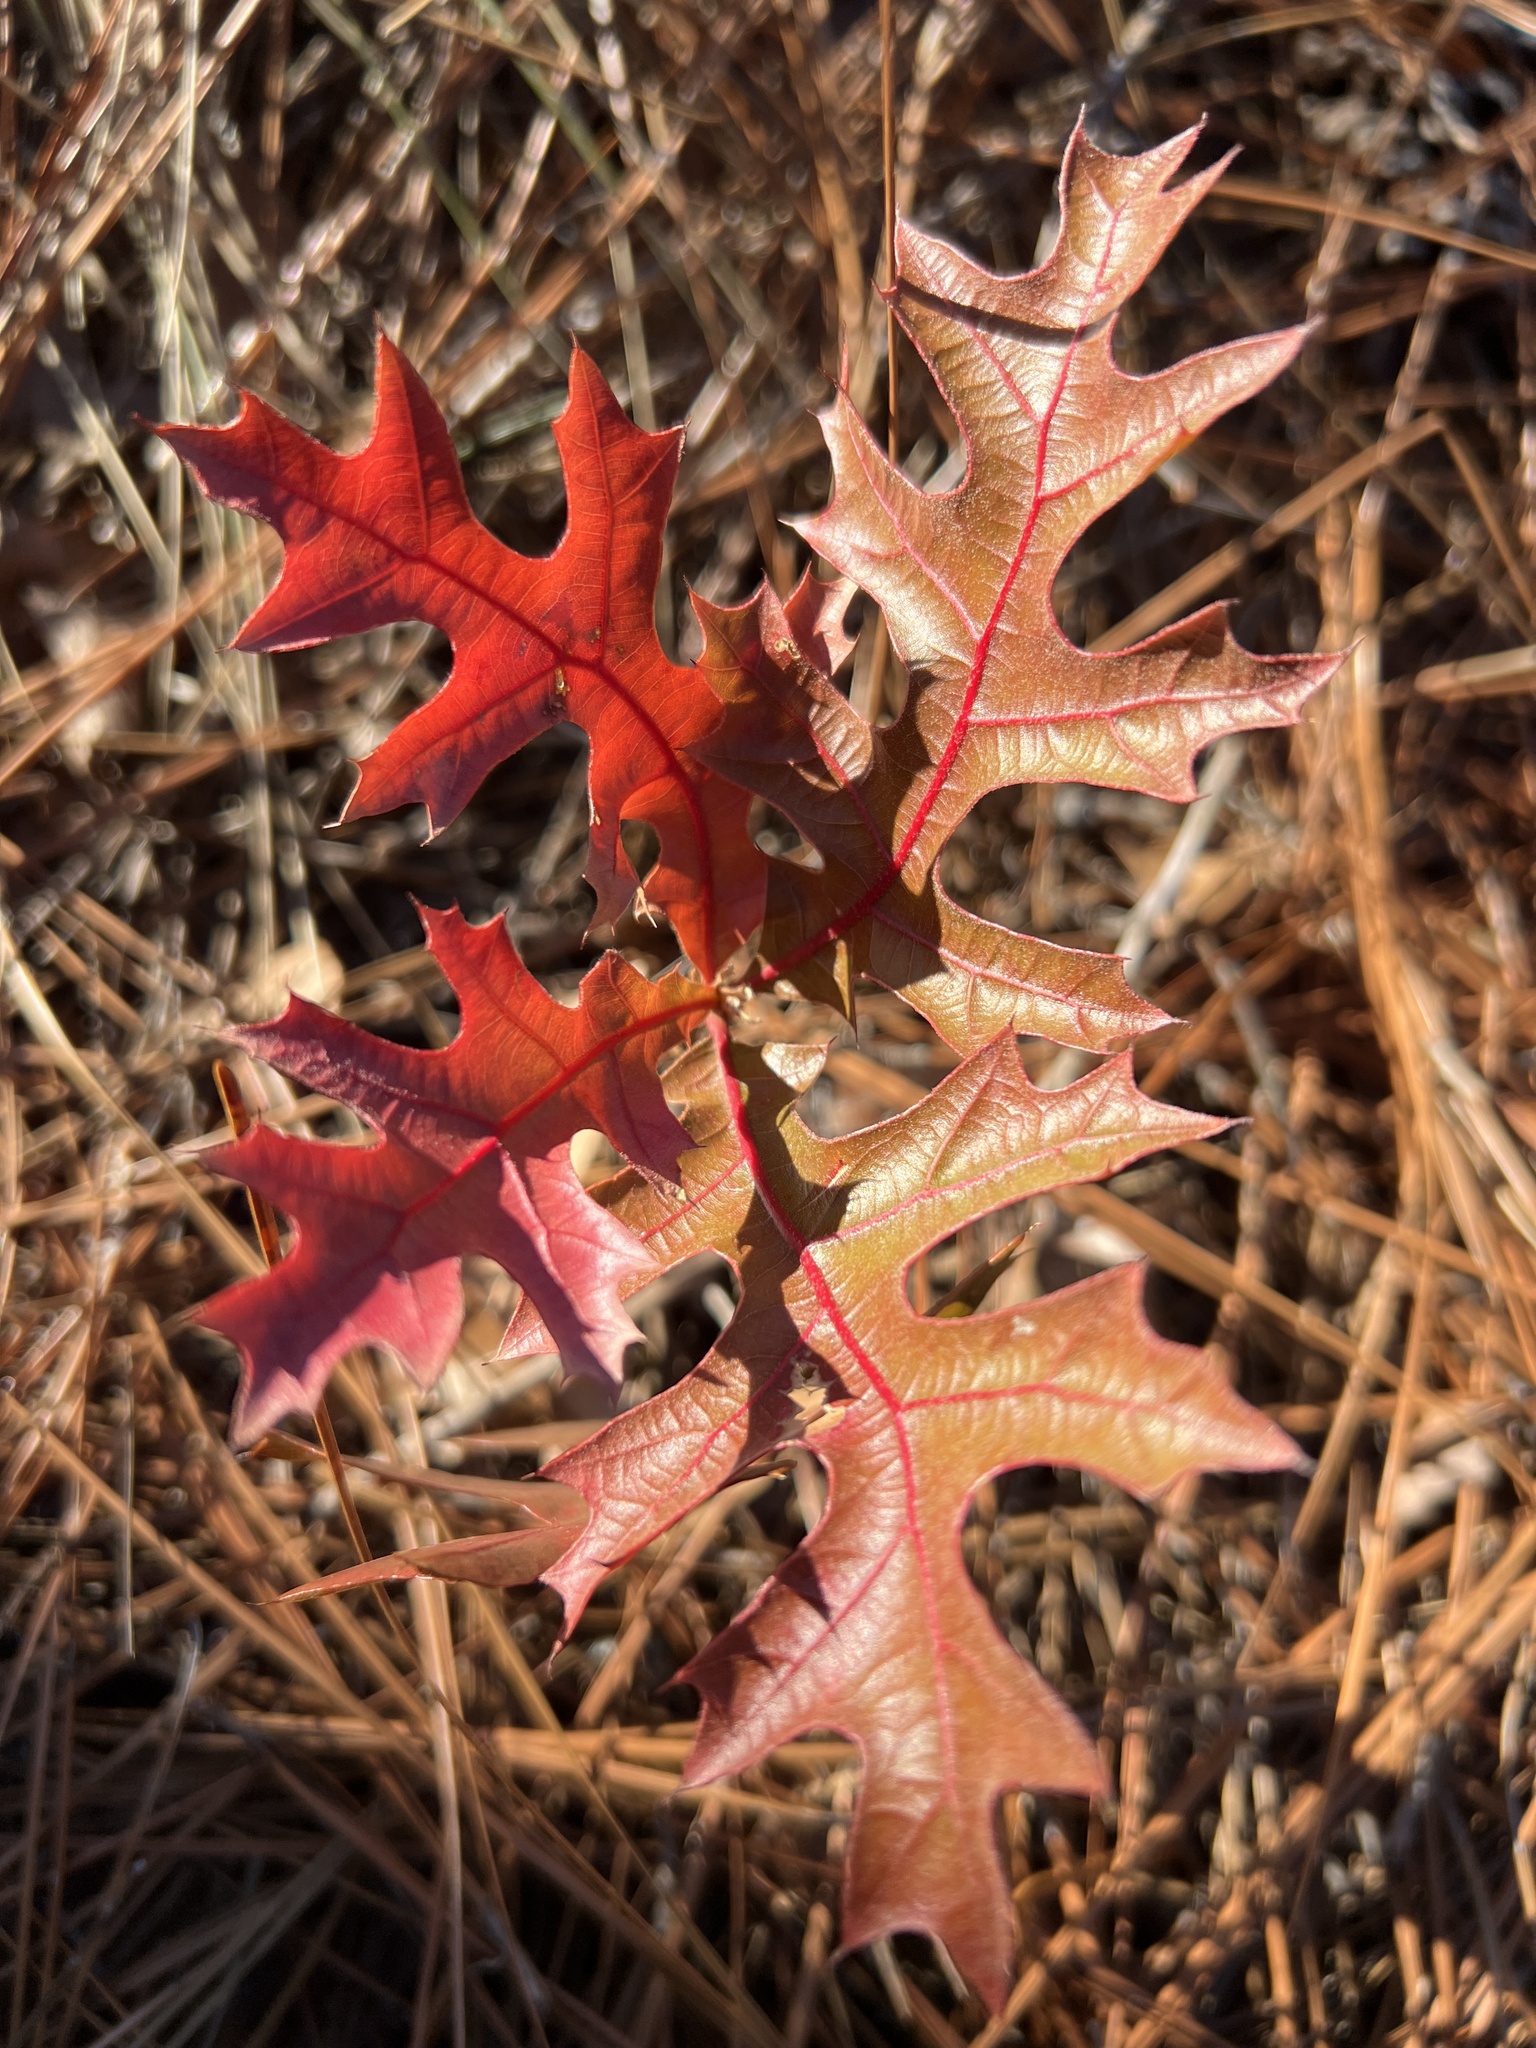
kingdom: Plantae
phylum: Tracheophyta
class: Magnoliopsida
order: Fagales
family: Fagaceae
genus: Quercus
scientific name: Quercus laevis
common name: Turkey oak
